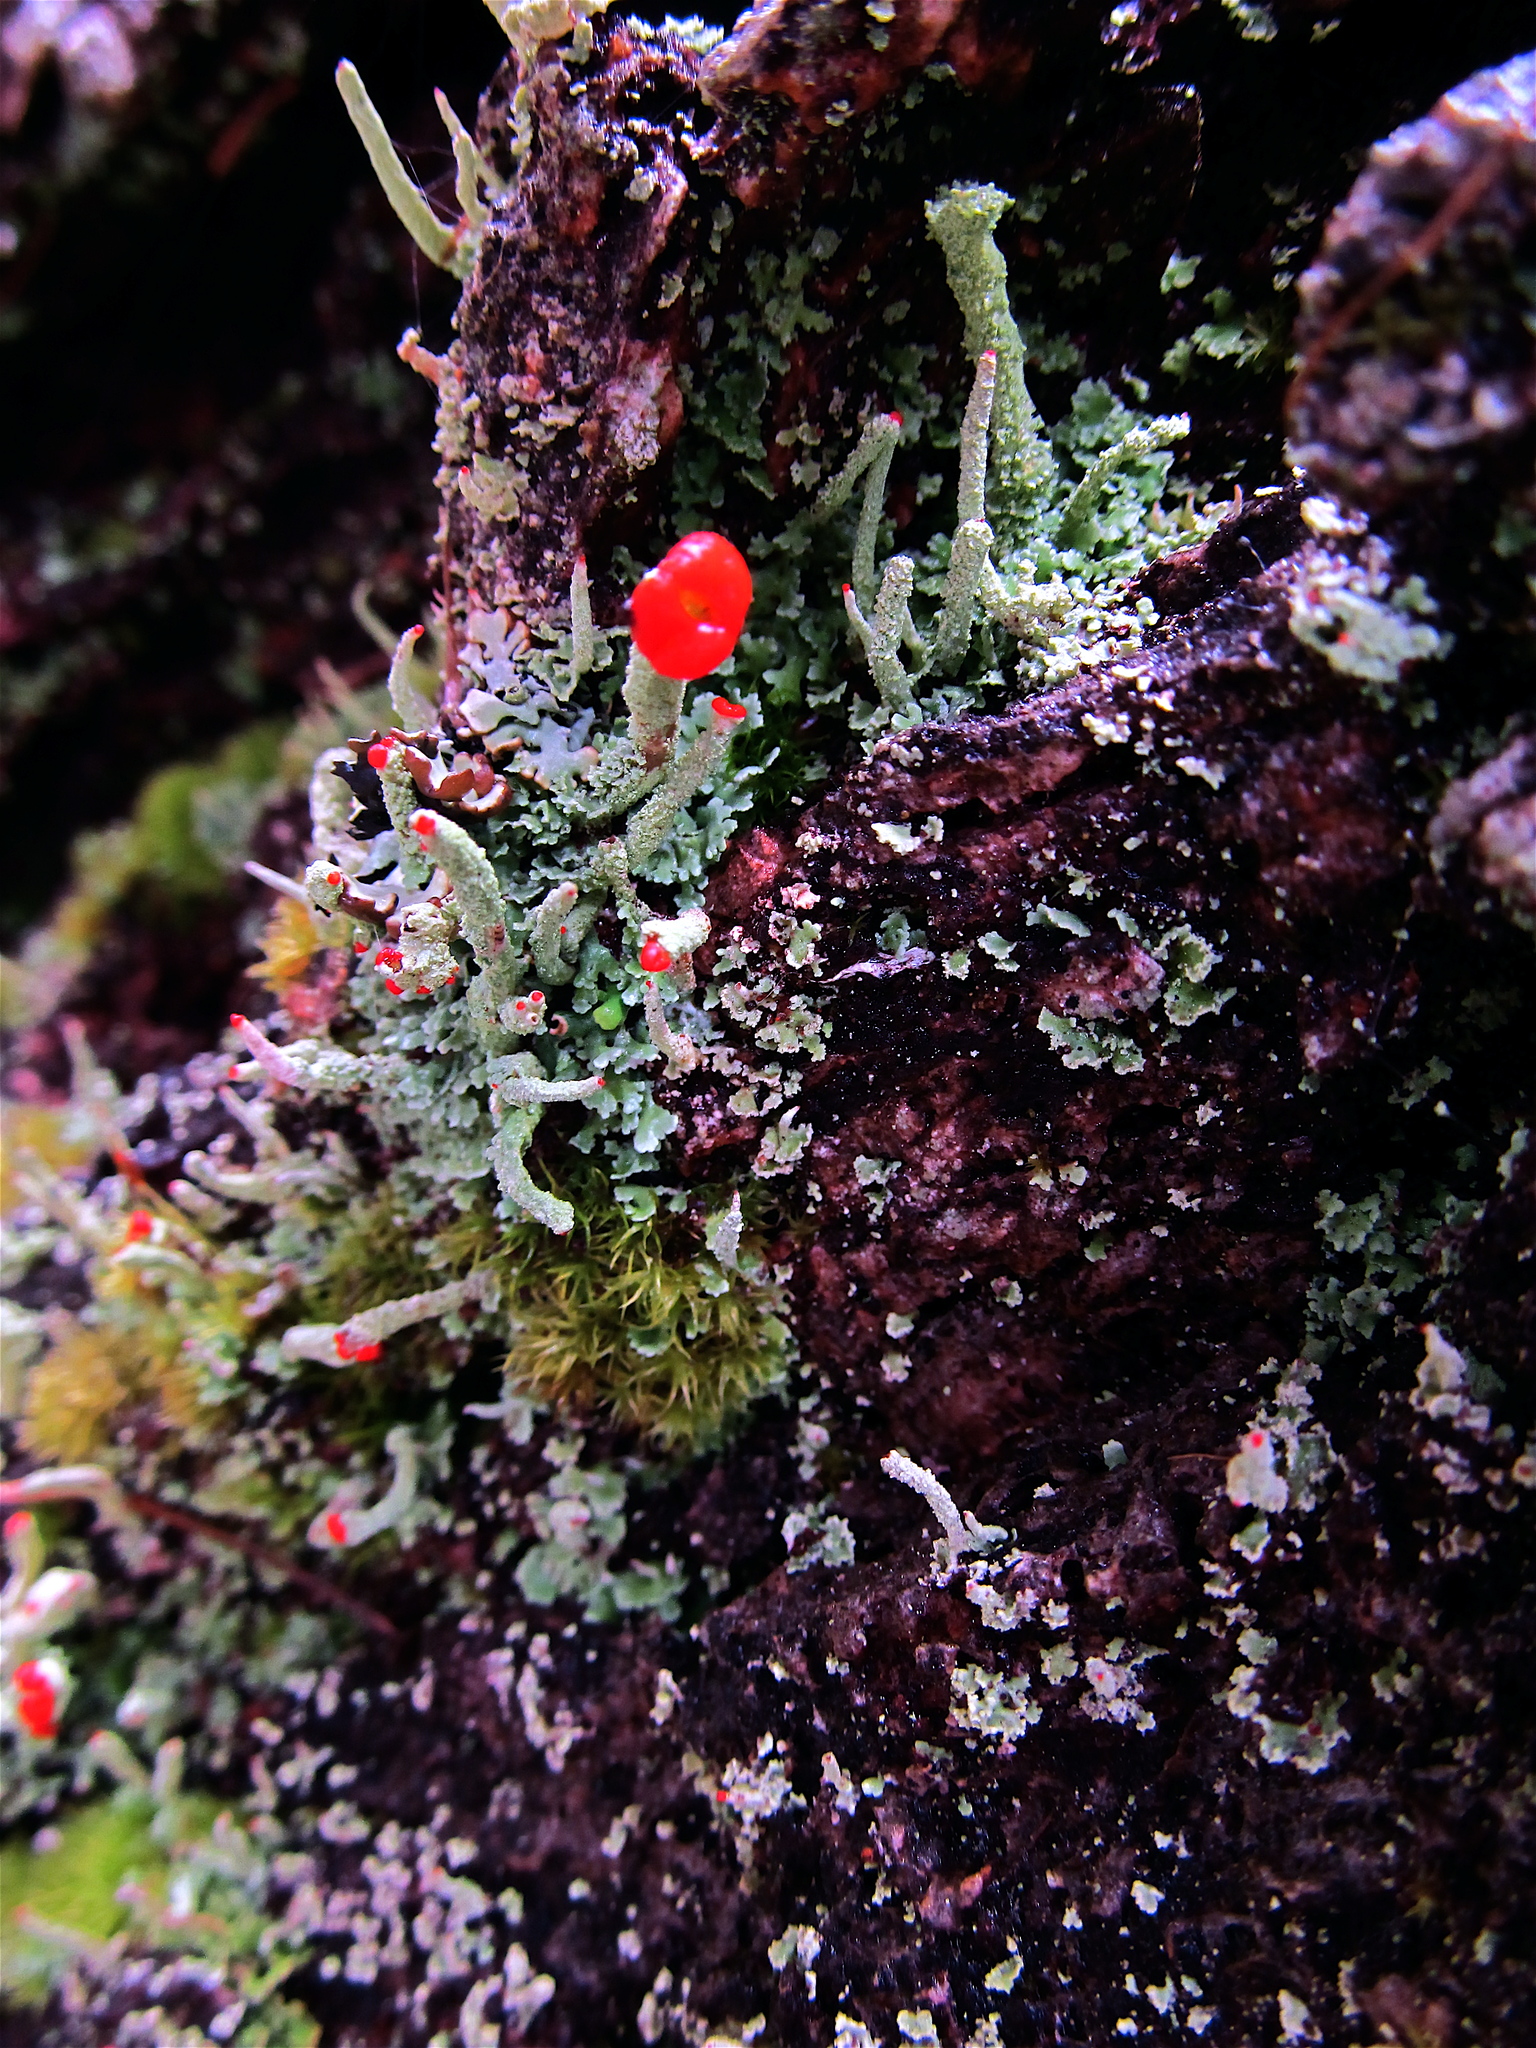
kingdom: Fungi
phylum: Ascomycota
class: Lecanoromycetes
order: Lecanorales
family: Cladoniaceae
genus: Cladonia
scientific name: Cladonia macilenta
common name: Lipstick powderhorn
